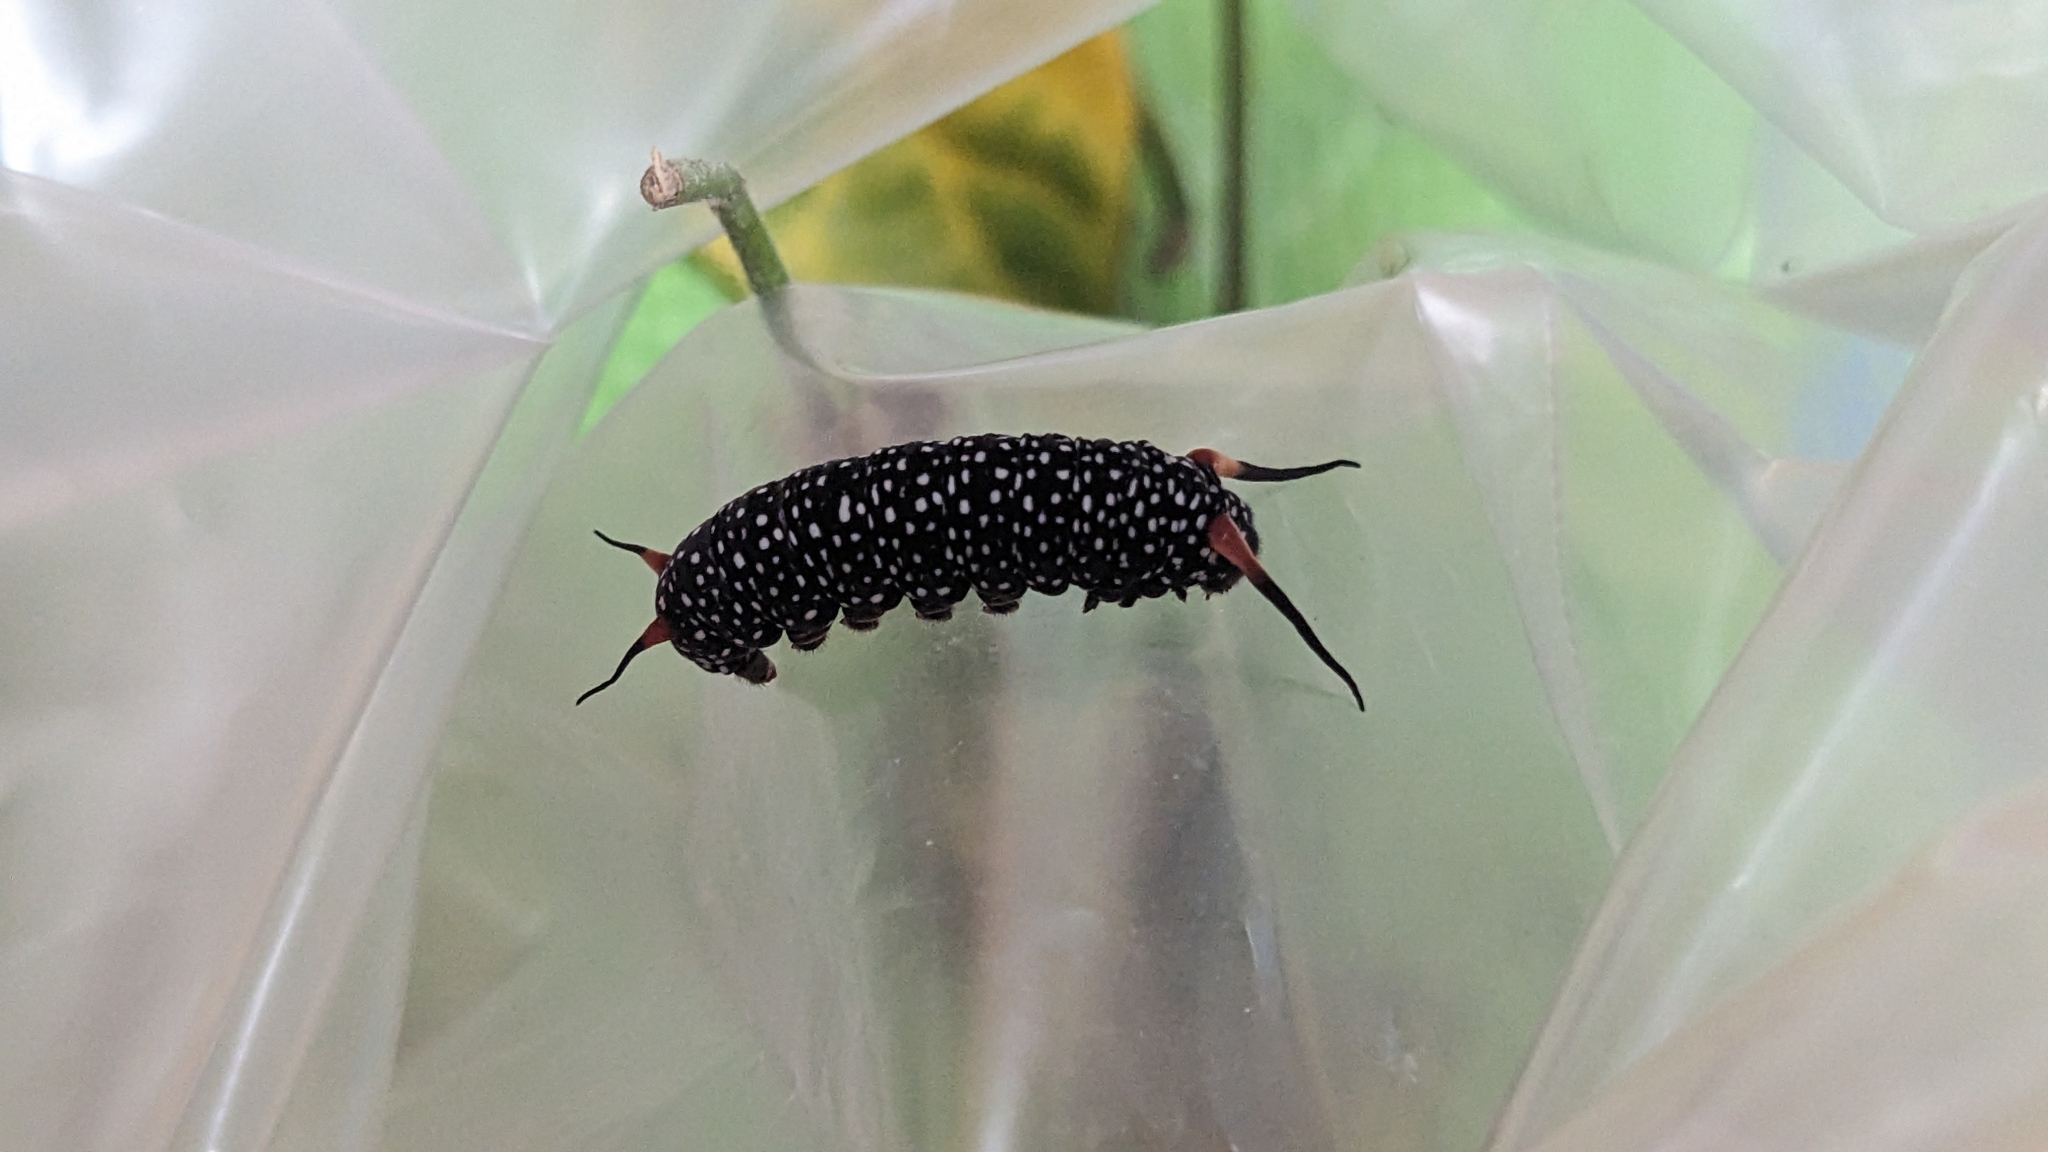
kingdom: Animalia
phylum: Arthropoda
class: Insecta
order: Lepidoptera
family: Nymphalidae
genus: Ideopsis
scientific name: Ideopsis similis
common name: Ceylon blue glassy tiger
